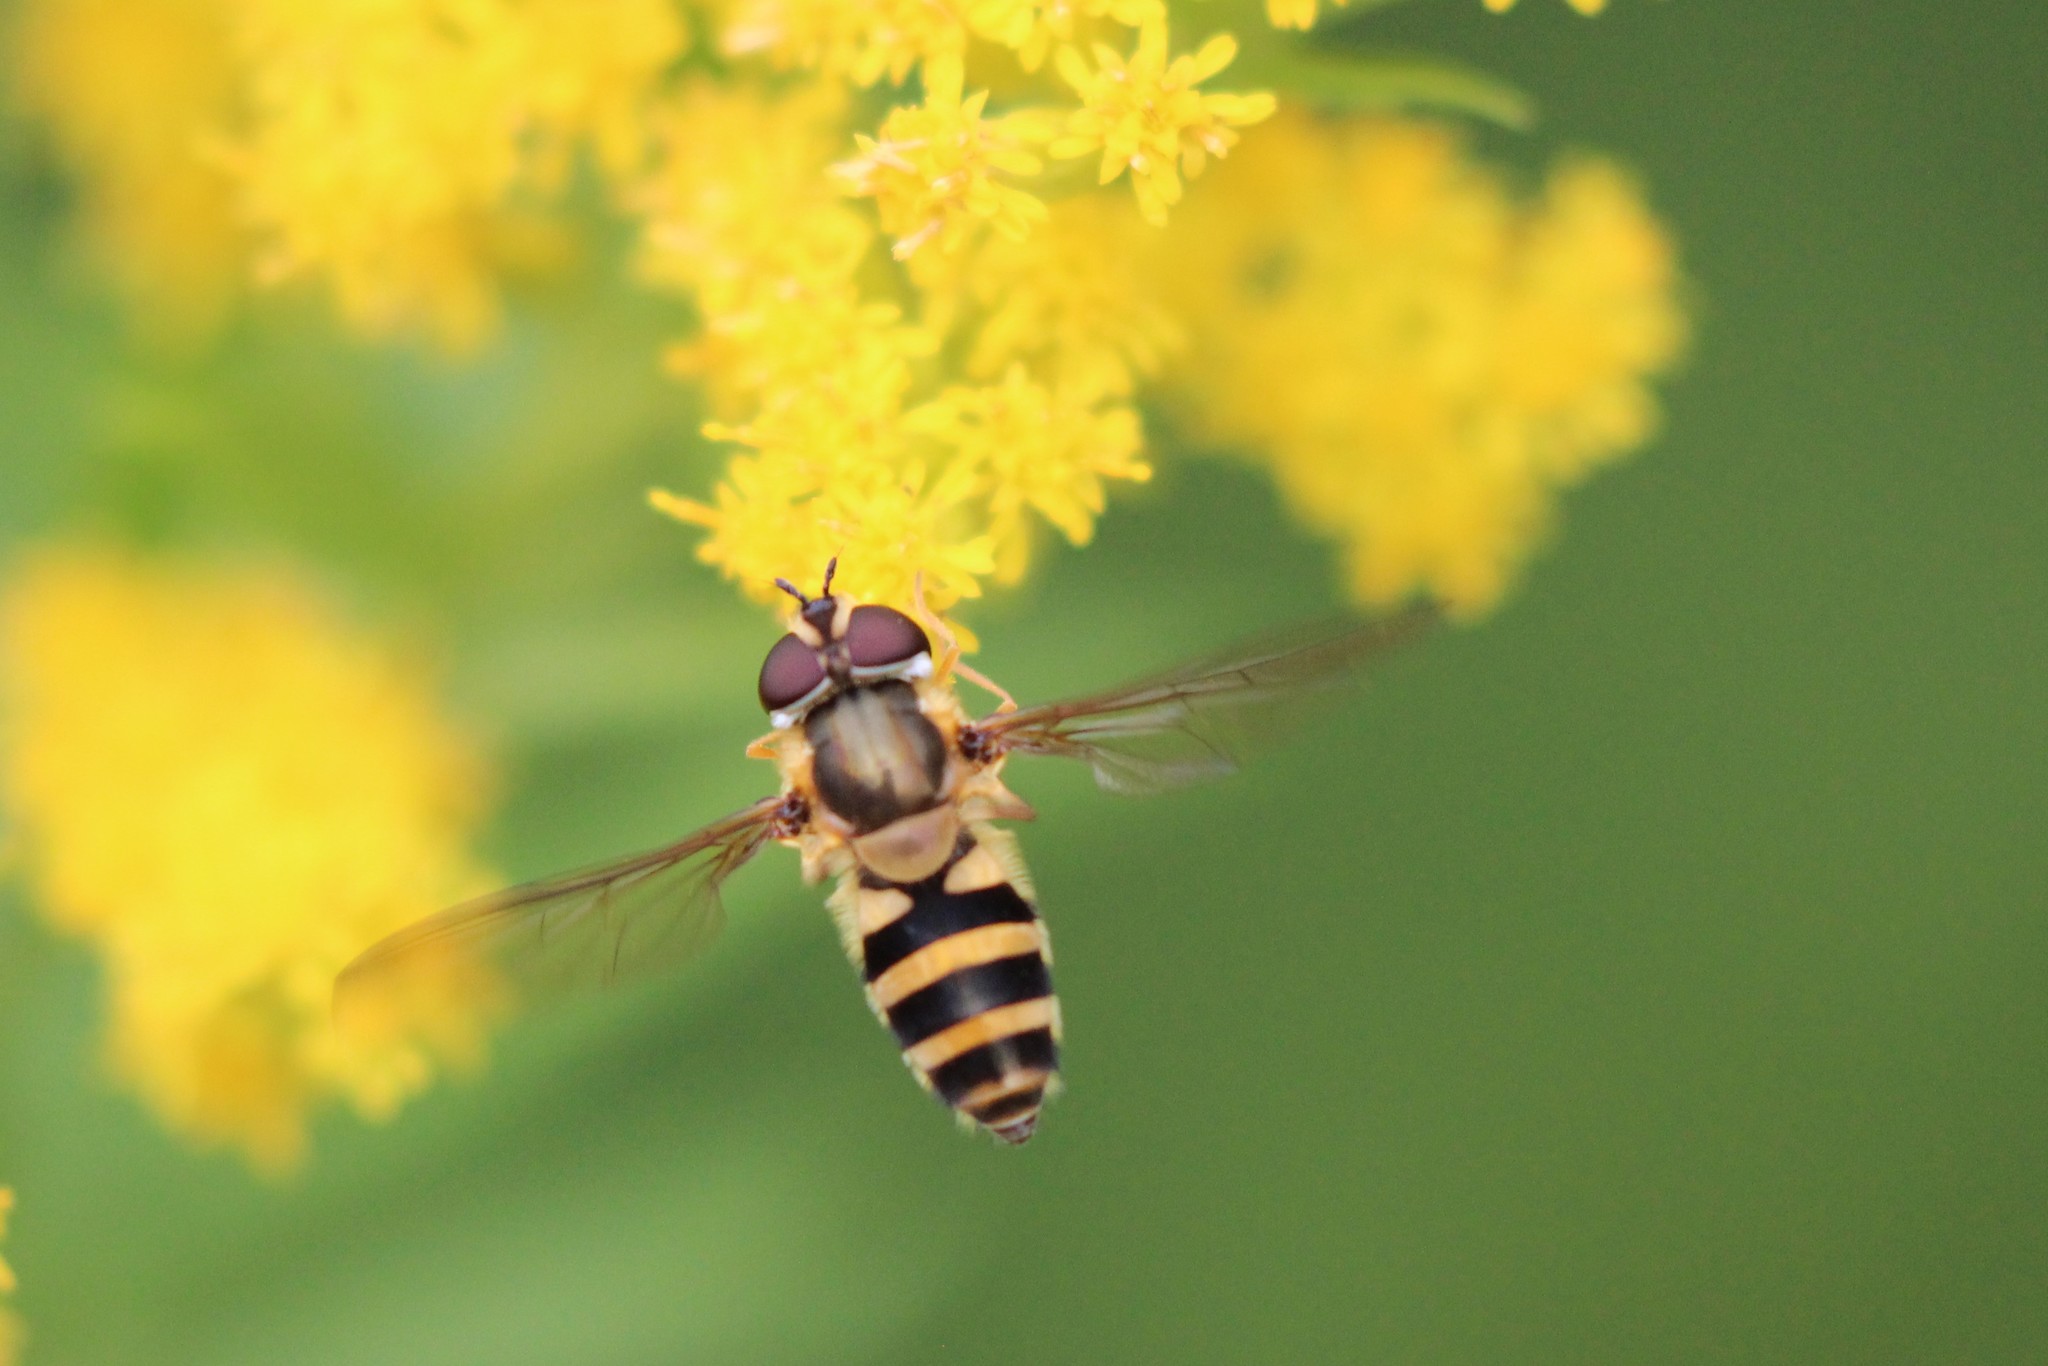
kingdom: Animalia
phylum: Arthropoda
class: Insecta
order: Diptera
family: Syrphidae
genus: Epistrophe
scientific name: Epistrophe grossulariae
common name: Black-horned smoothtail
